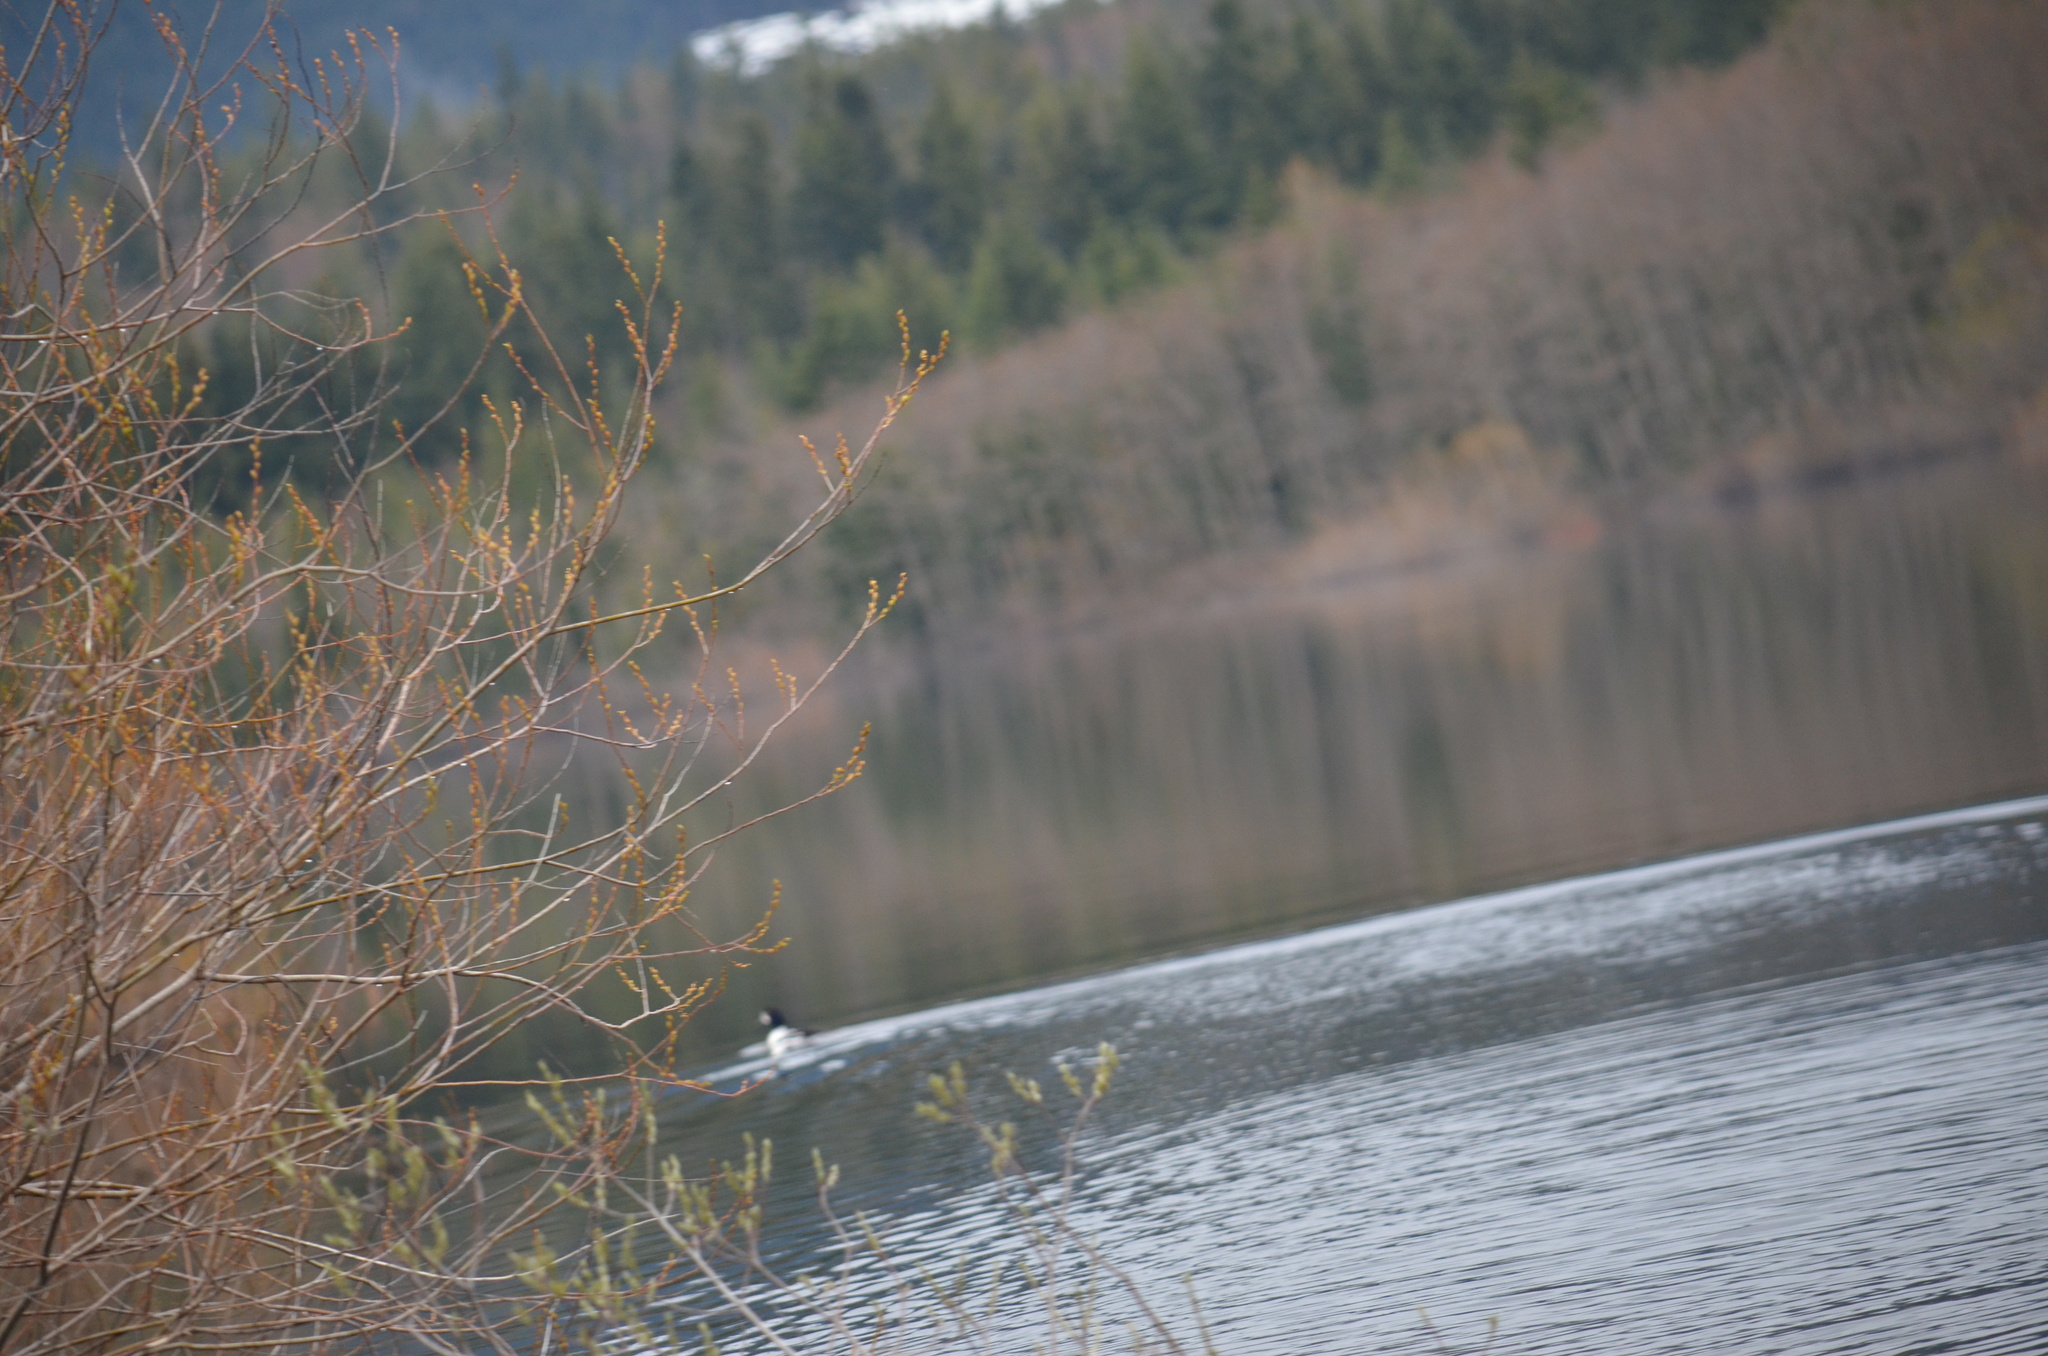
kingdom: Animalia
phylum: Chordata
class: Aves
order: Anseriformes
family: Anatidae
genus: Bucephala
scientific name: Bucephala islandica
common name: Barrow's goldeneye
